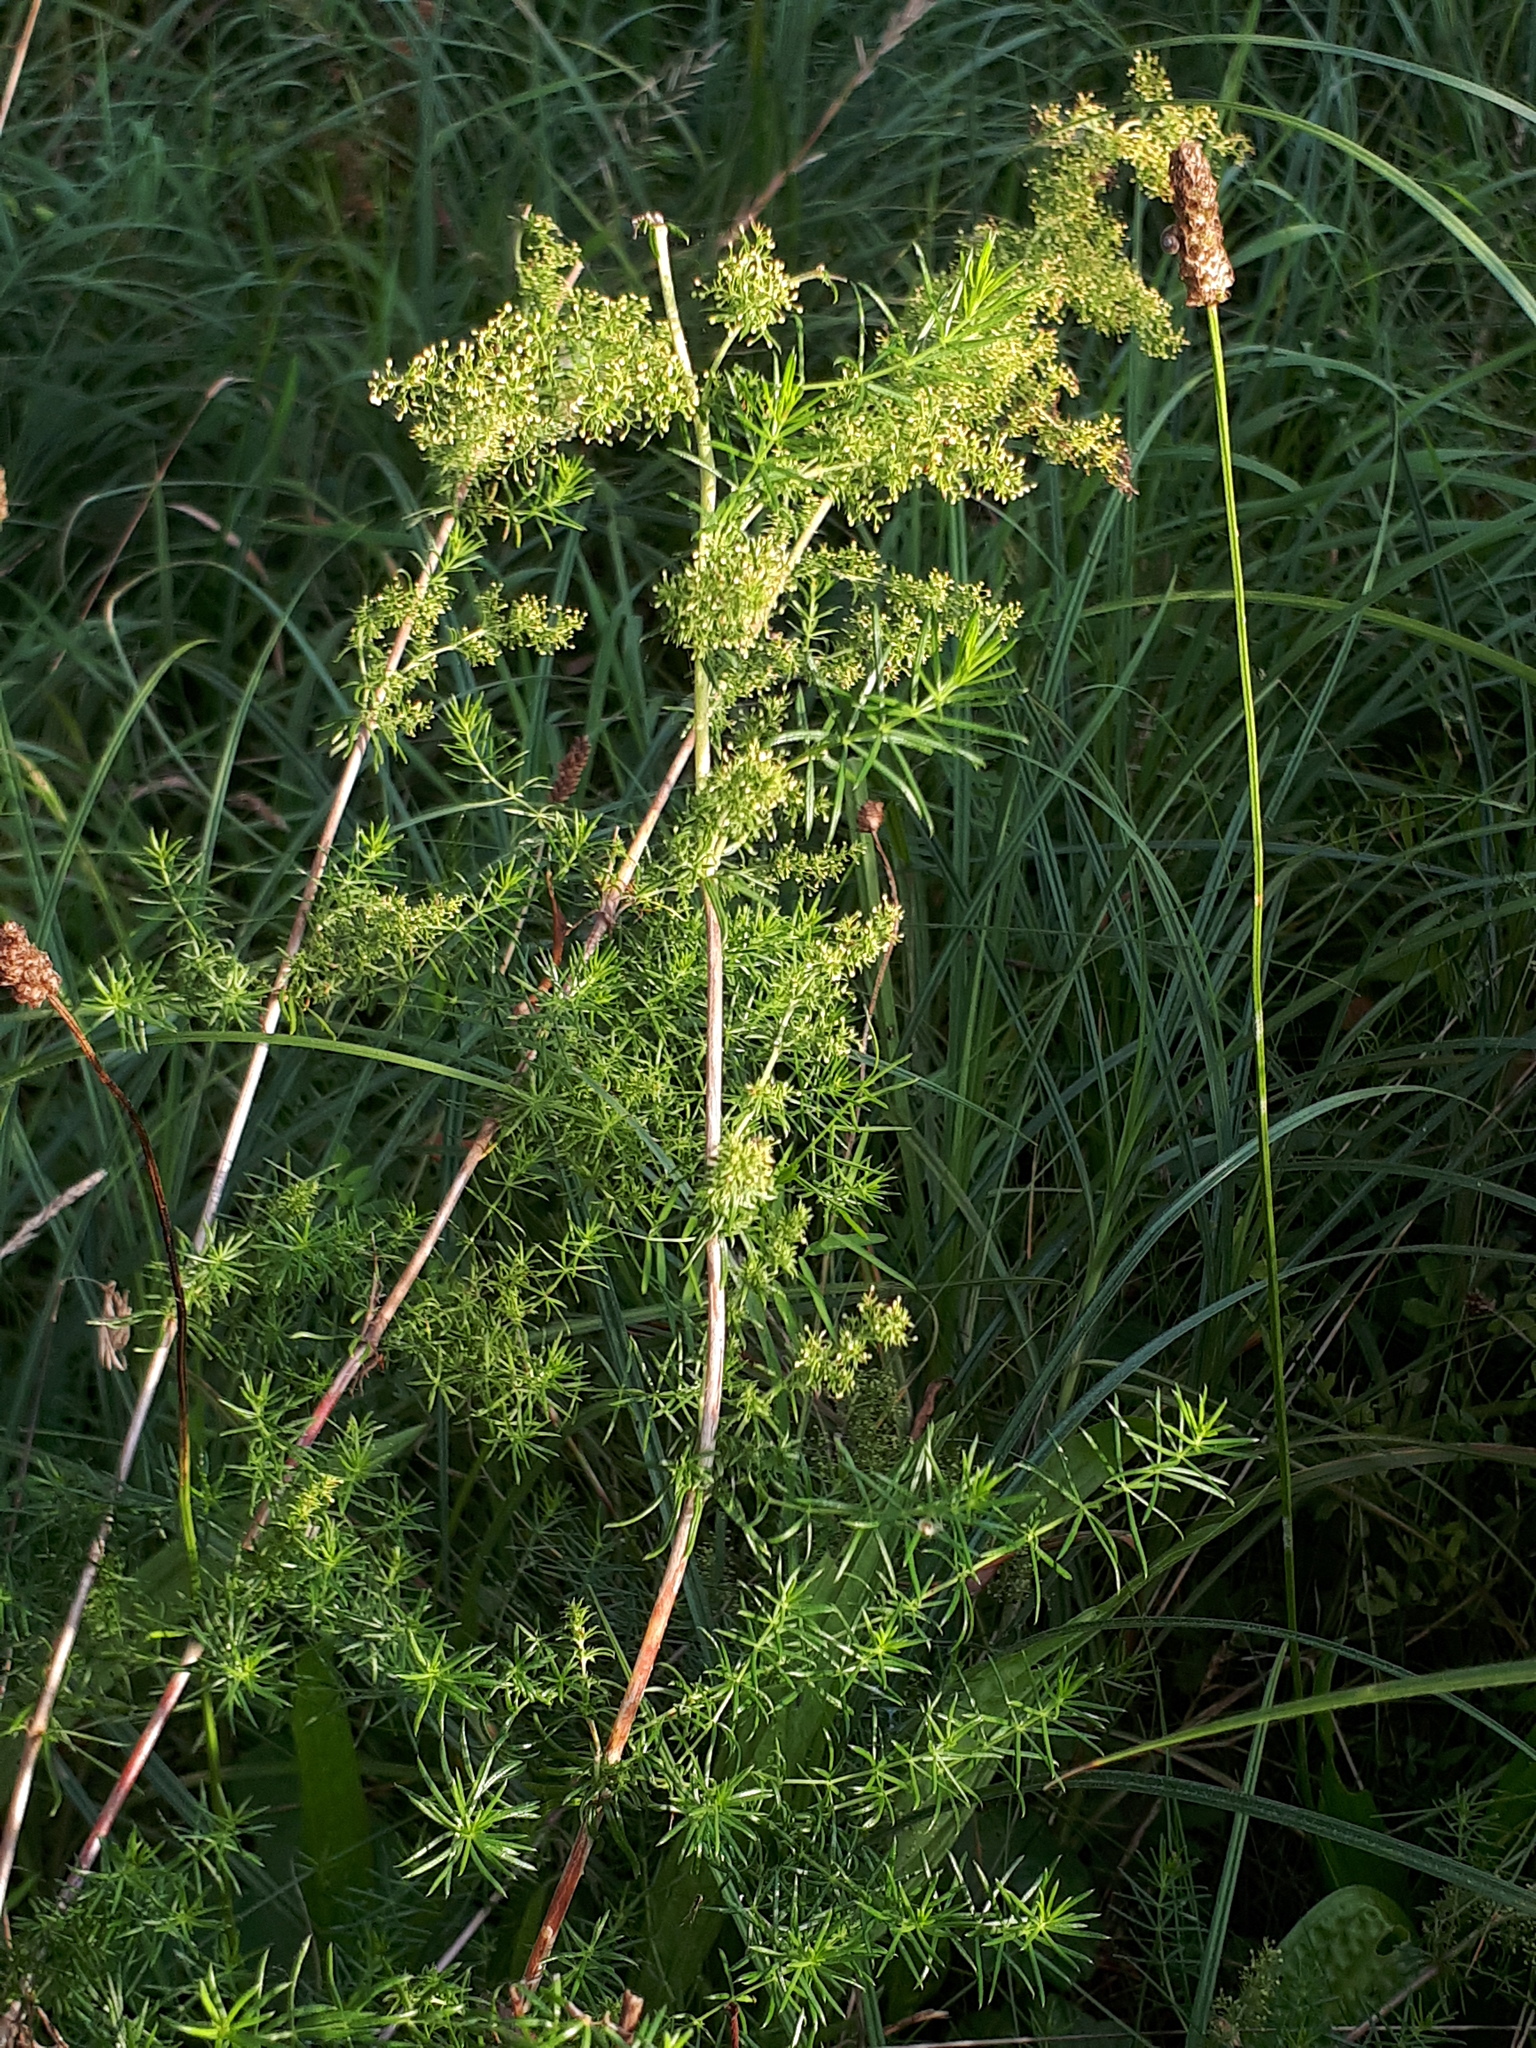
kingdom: Plantae
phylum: Tracheophyta
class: Magnoliopsida
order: Gentianales
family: Rubiaceae
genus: Galium
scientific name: Galium verum
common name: Lady's bedstraw
